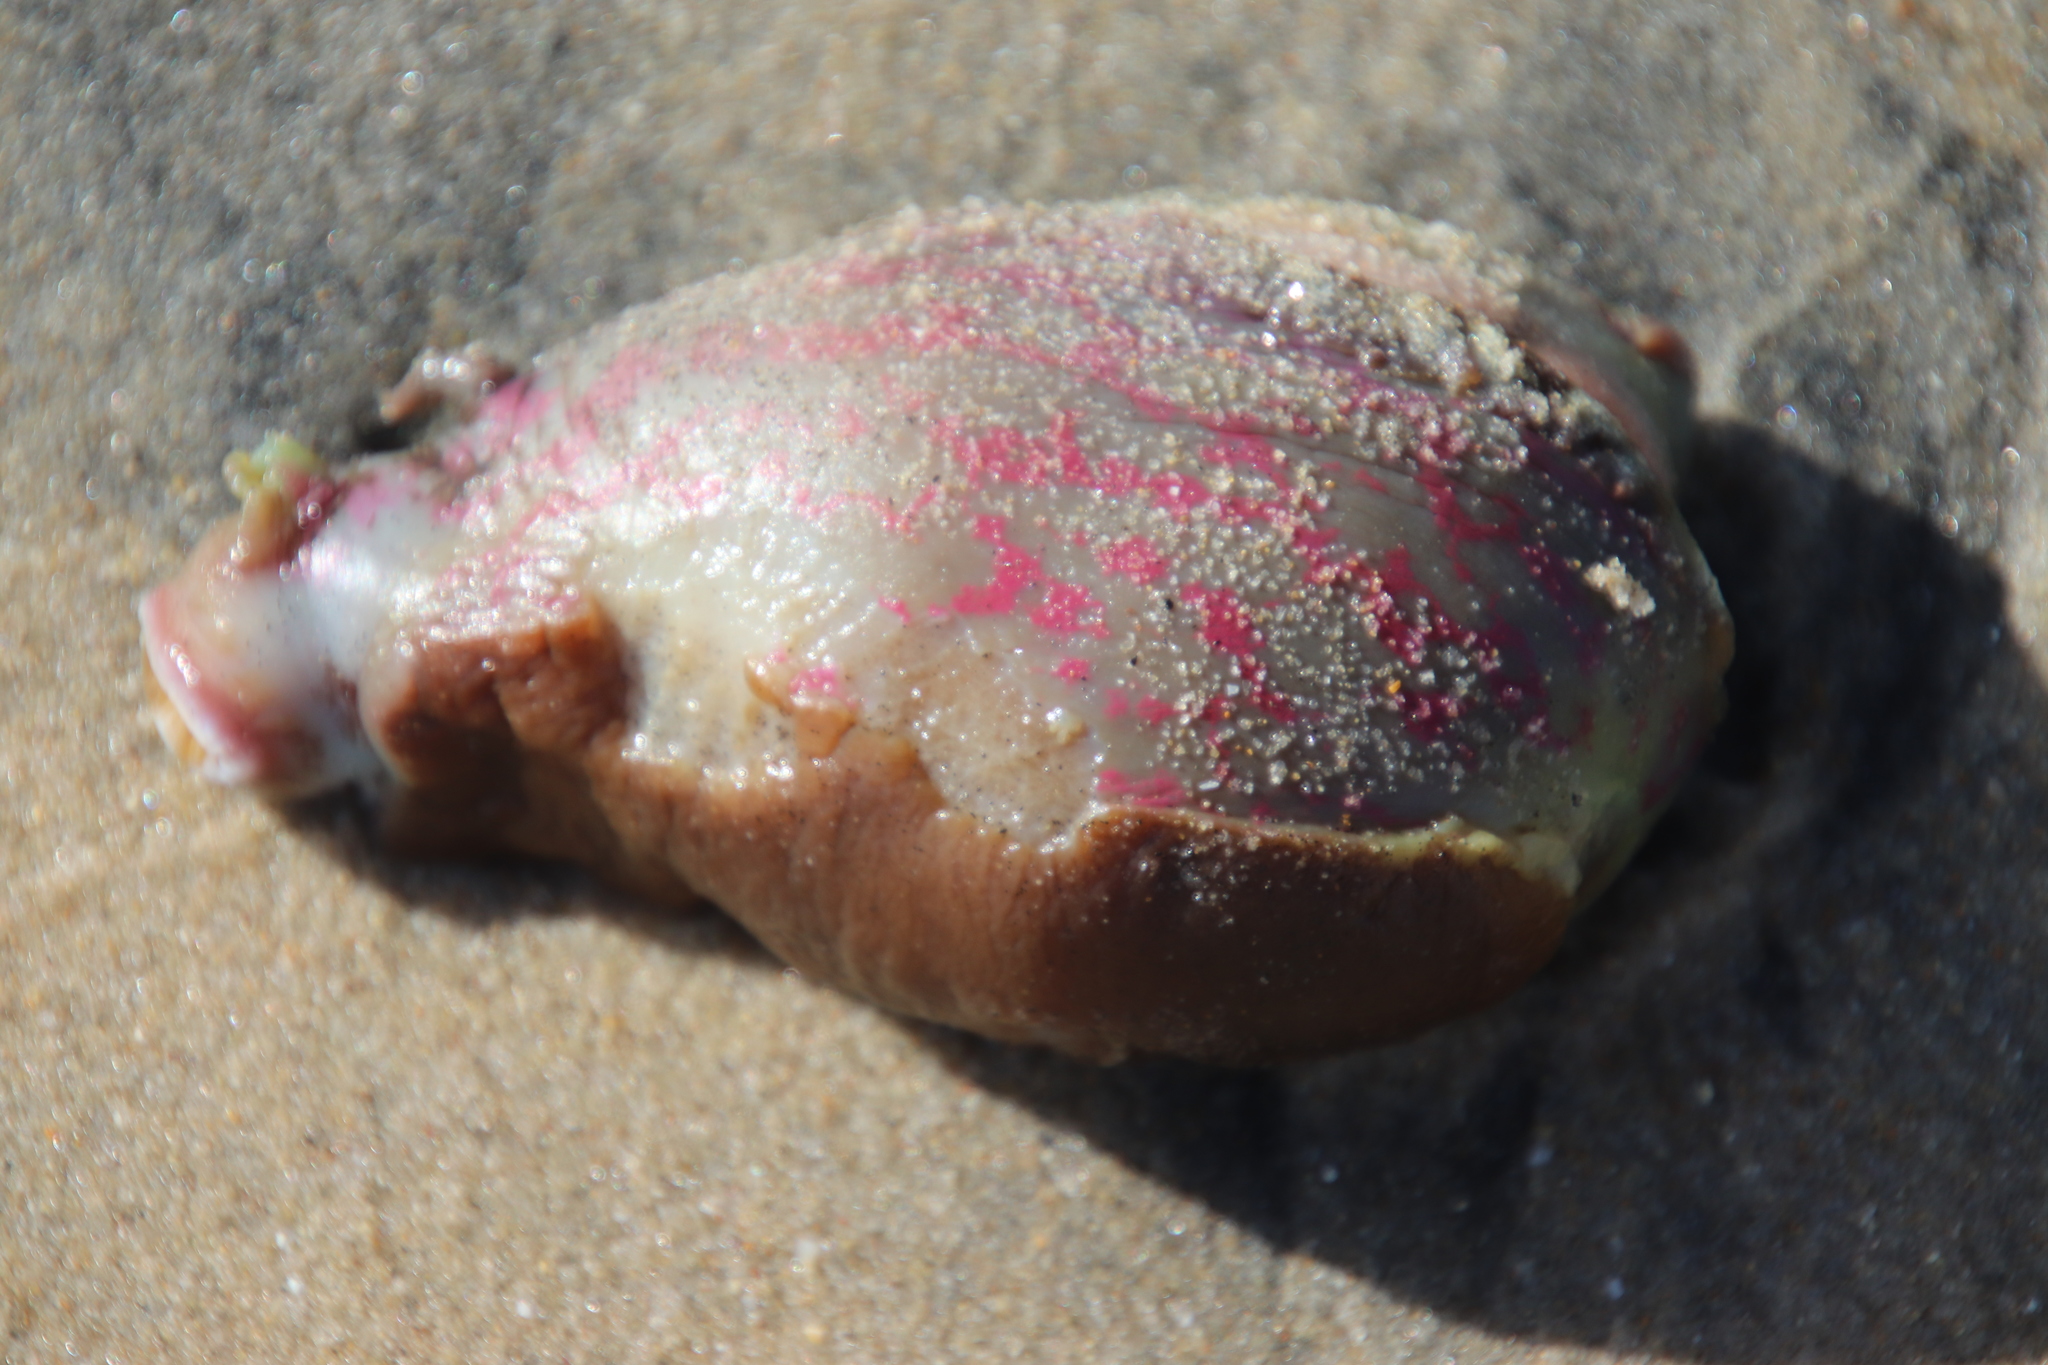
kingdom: Animalia
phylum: Mollusca
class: Gastropoda
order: Aplysiida
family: Aplysiidae
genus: Aplysia
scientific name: Aplysia californica
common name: California seahare
